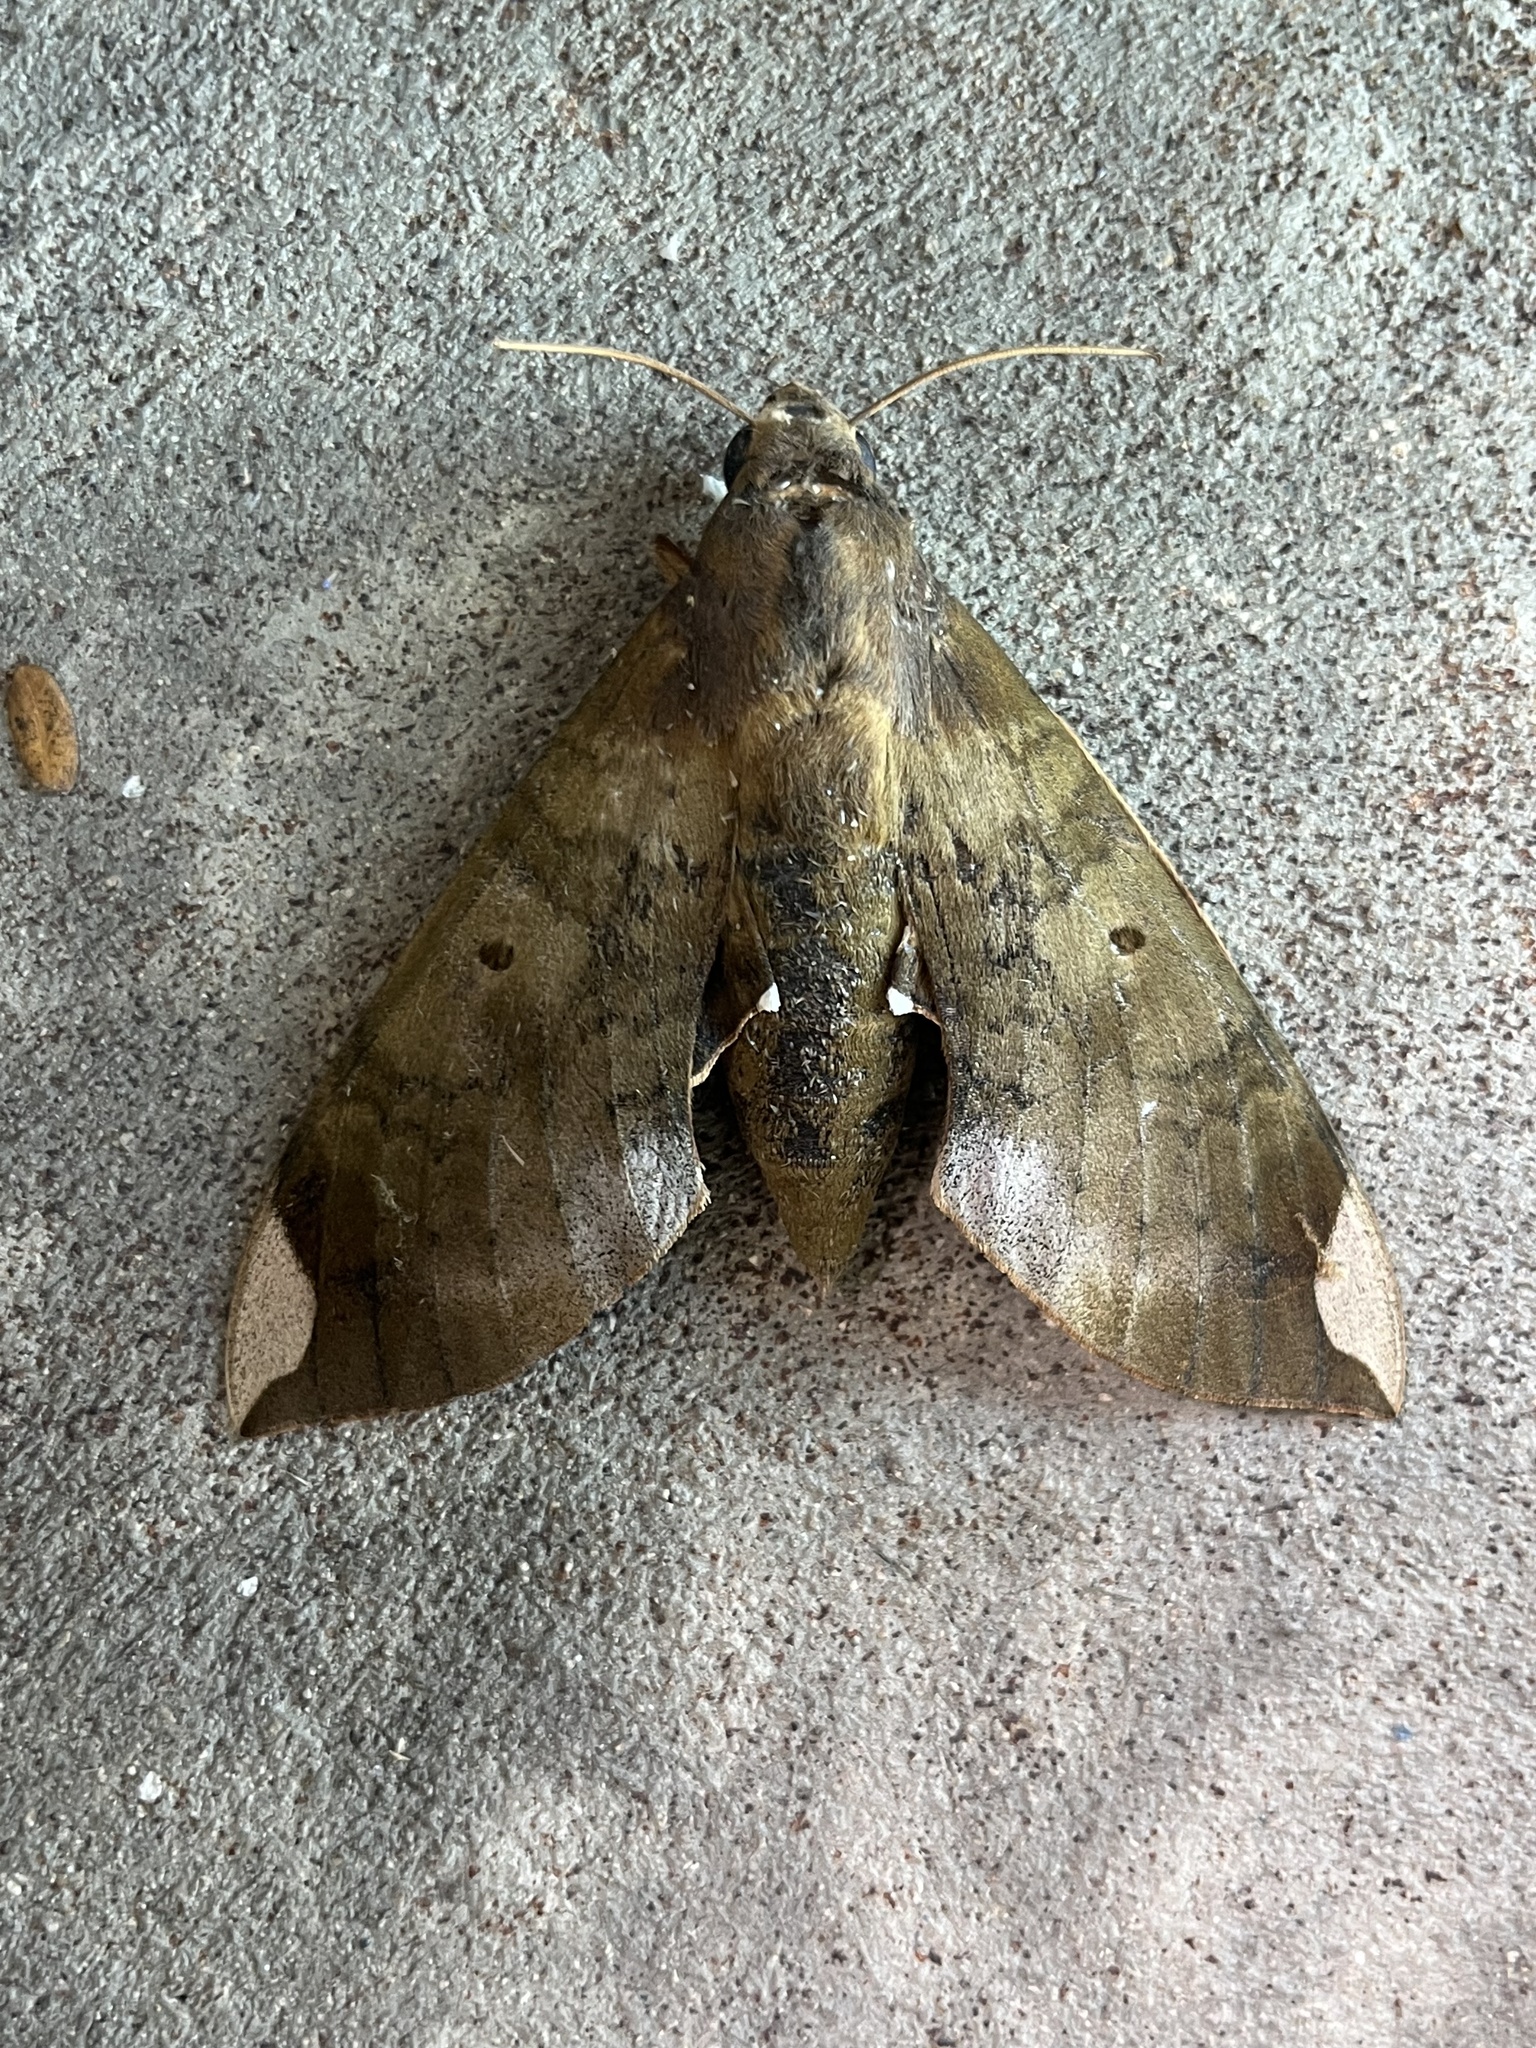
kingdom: Animalia
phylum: Arthropoda
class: Insecta
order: Lepidoptera
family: Sphingidae
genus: Pachylia
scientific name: Pachylia ficus
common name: Fig sphinx
